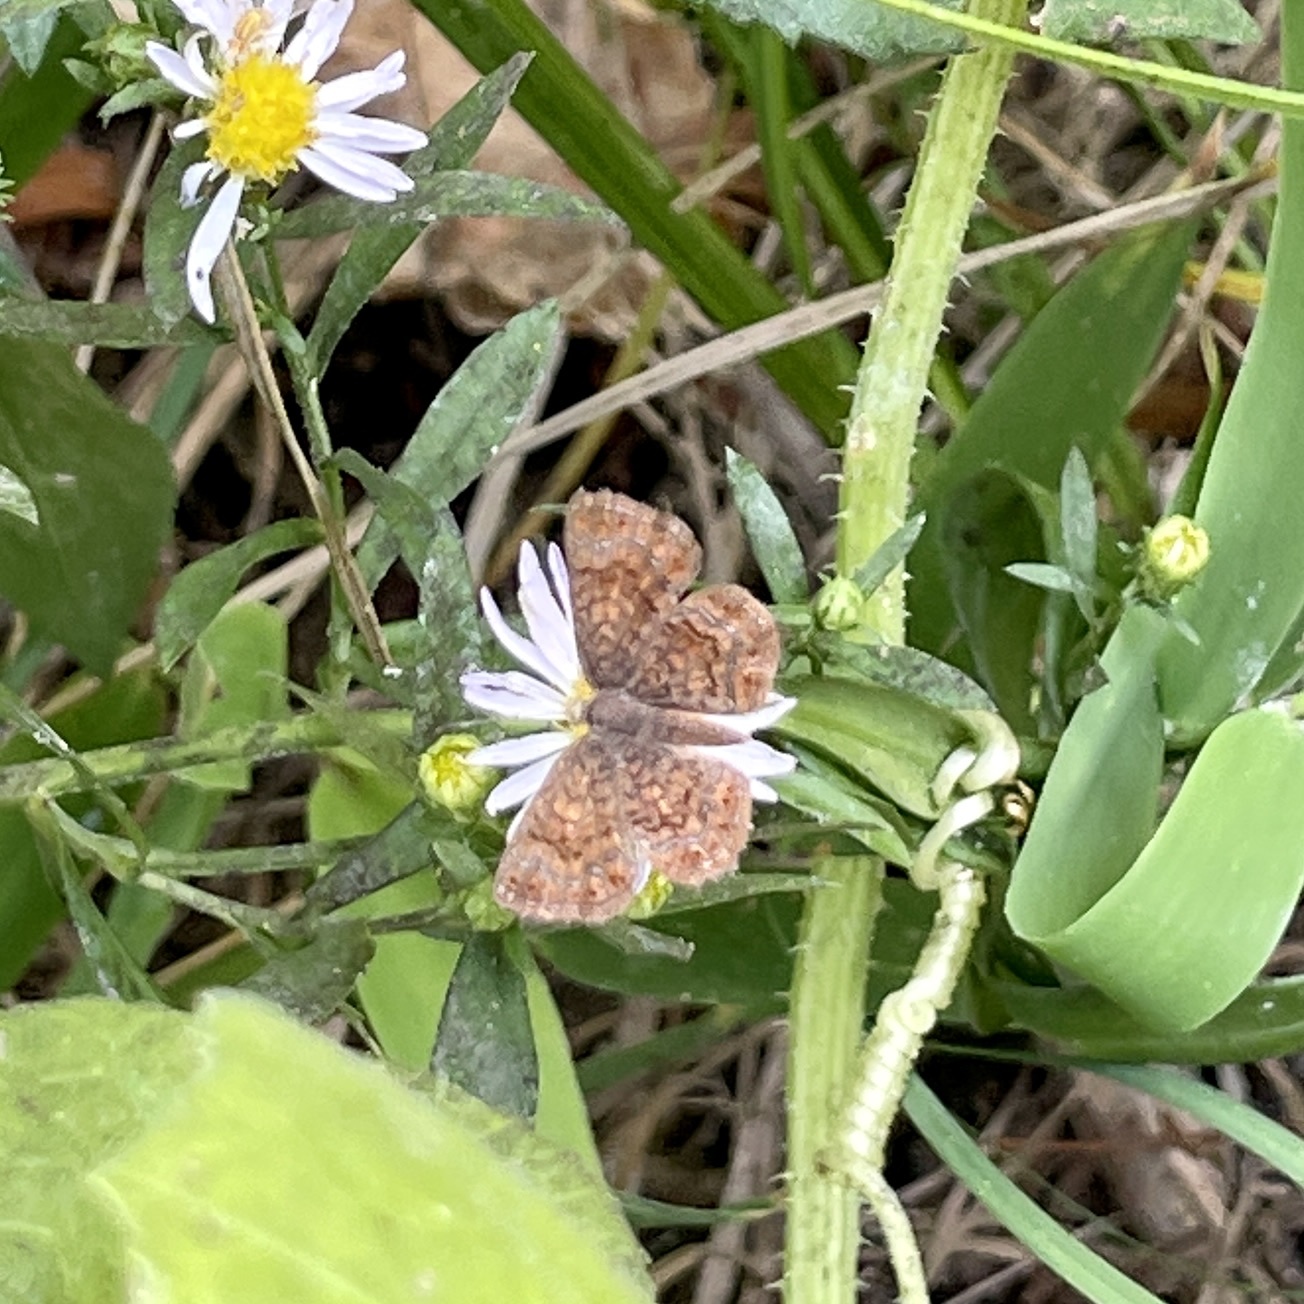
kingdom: Animalia
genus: Calephelis
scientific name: Calephelis nemesis
